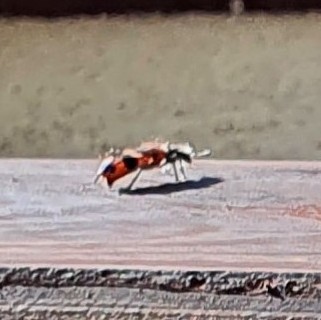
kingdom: Animalia
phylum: Arthropoda
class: Insecta
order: Coleoptera
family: Melyridae
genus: Anthocomus
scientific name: Anthocomus fasciatus
